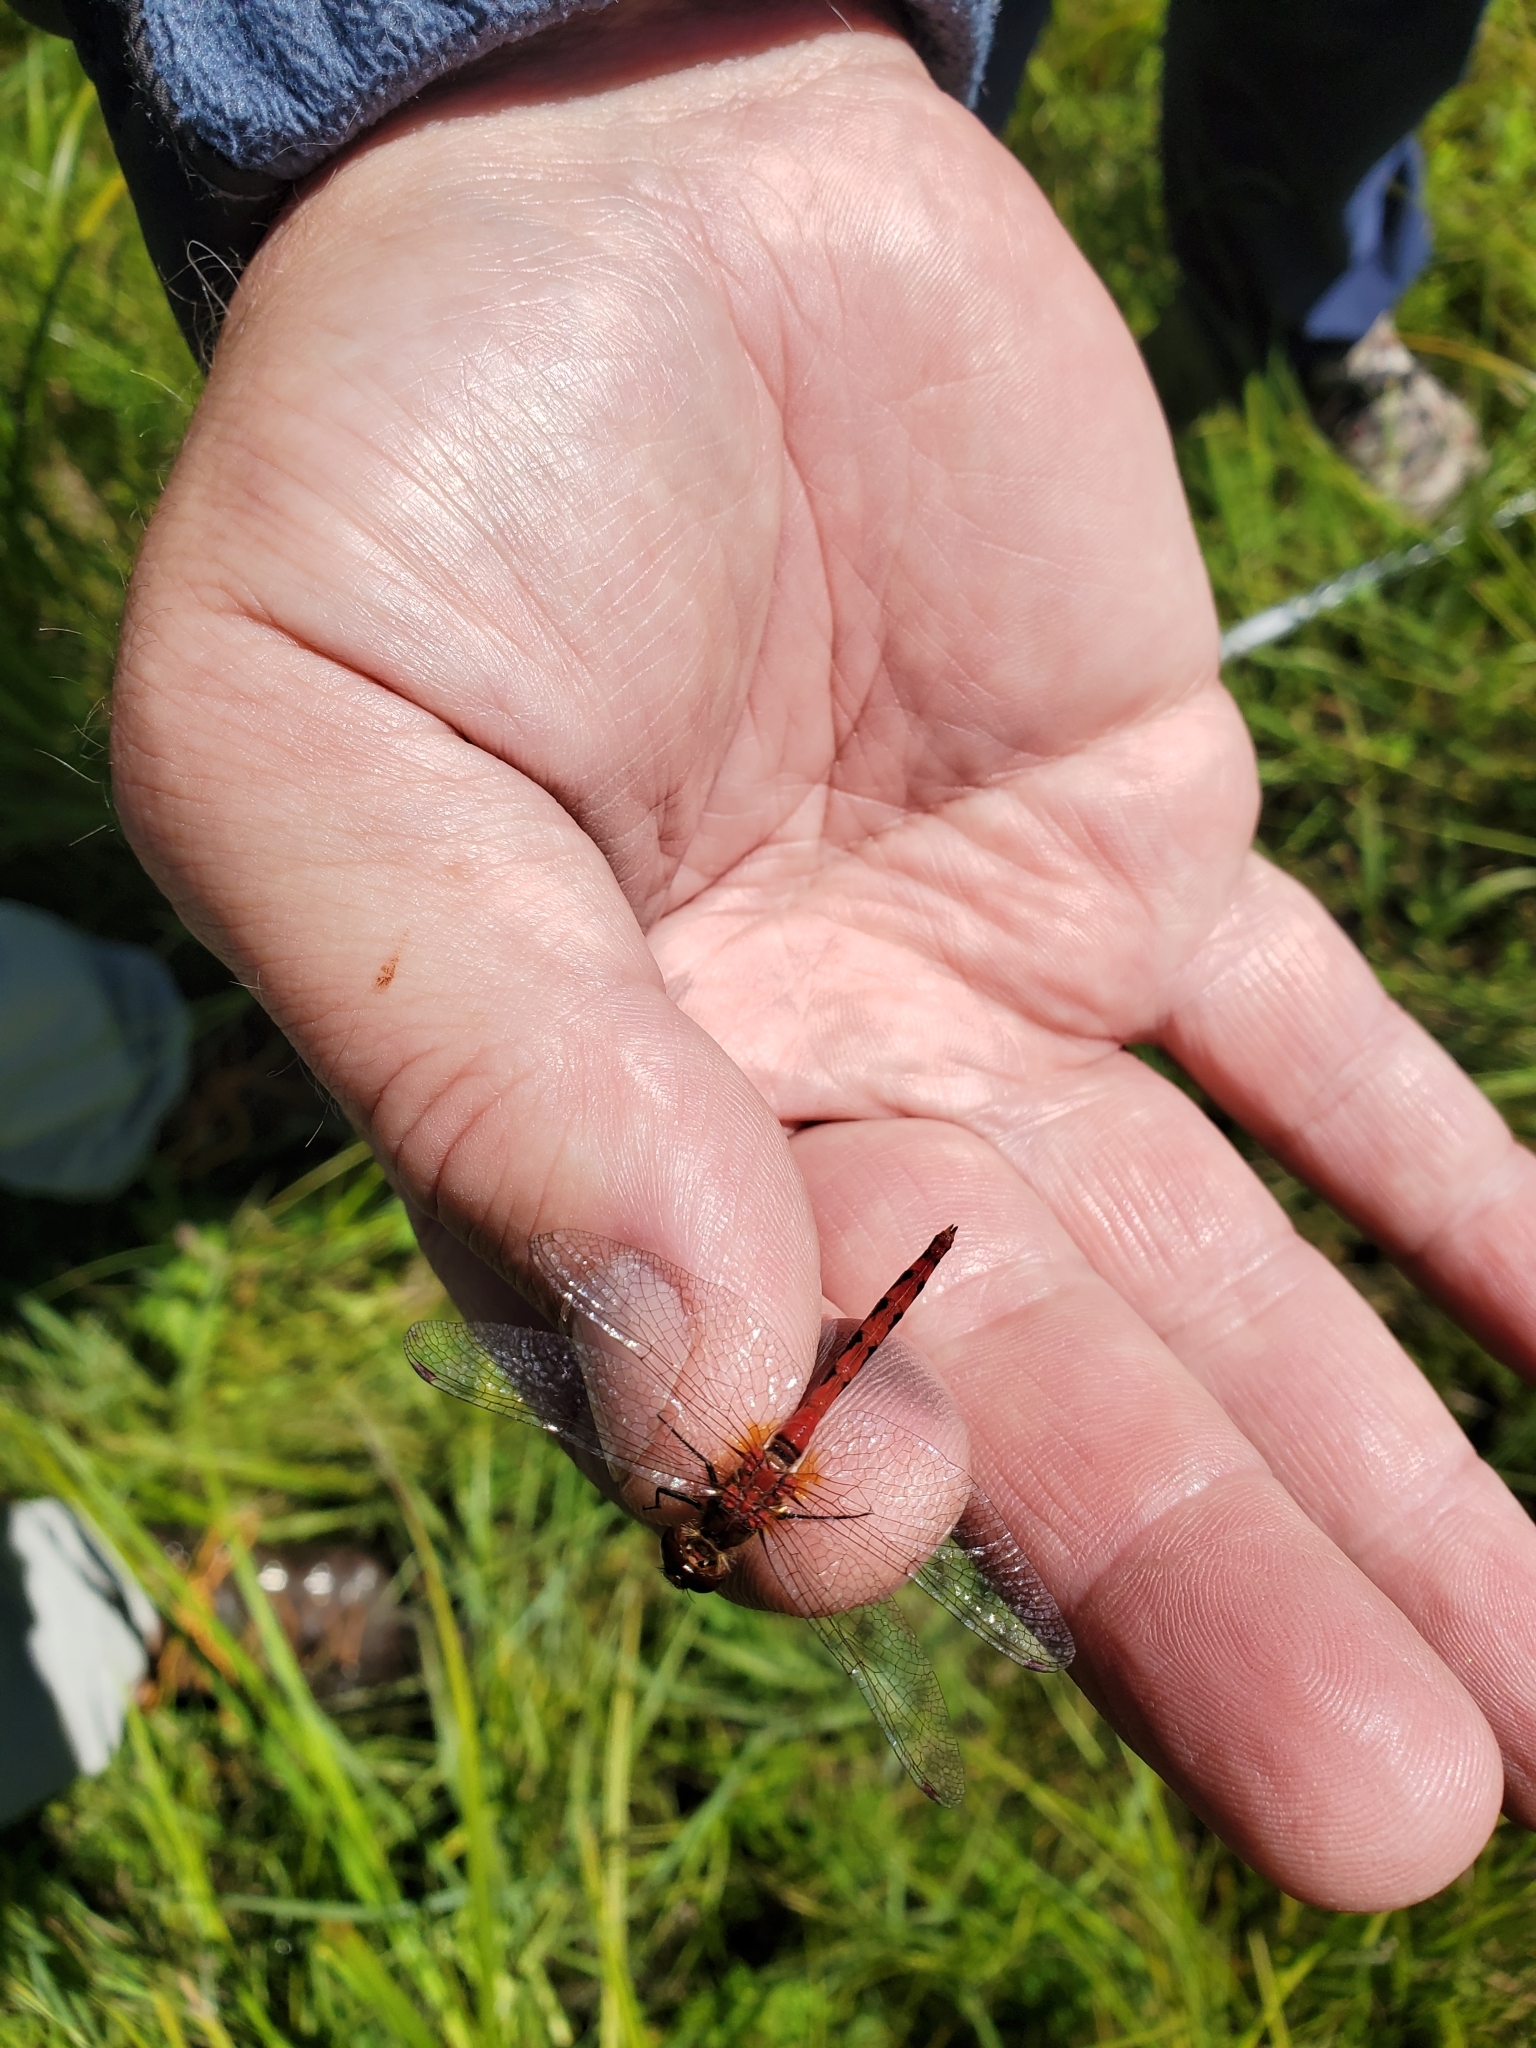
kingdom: Animalia
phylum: Arthropoda
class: Insecta
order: Odonata
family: Libellulidae
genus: Sympetrum
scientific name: Sympetrum obtrusum
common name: White-faced meadowhawk
